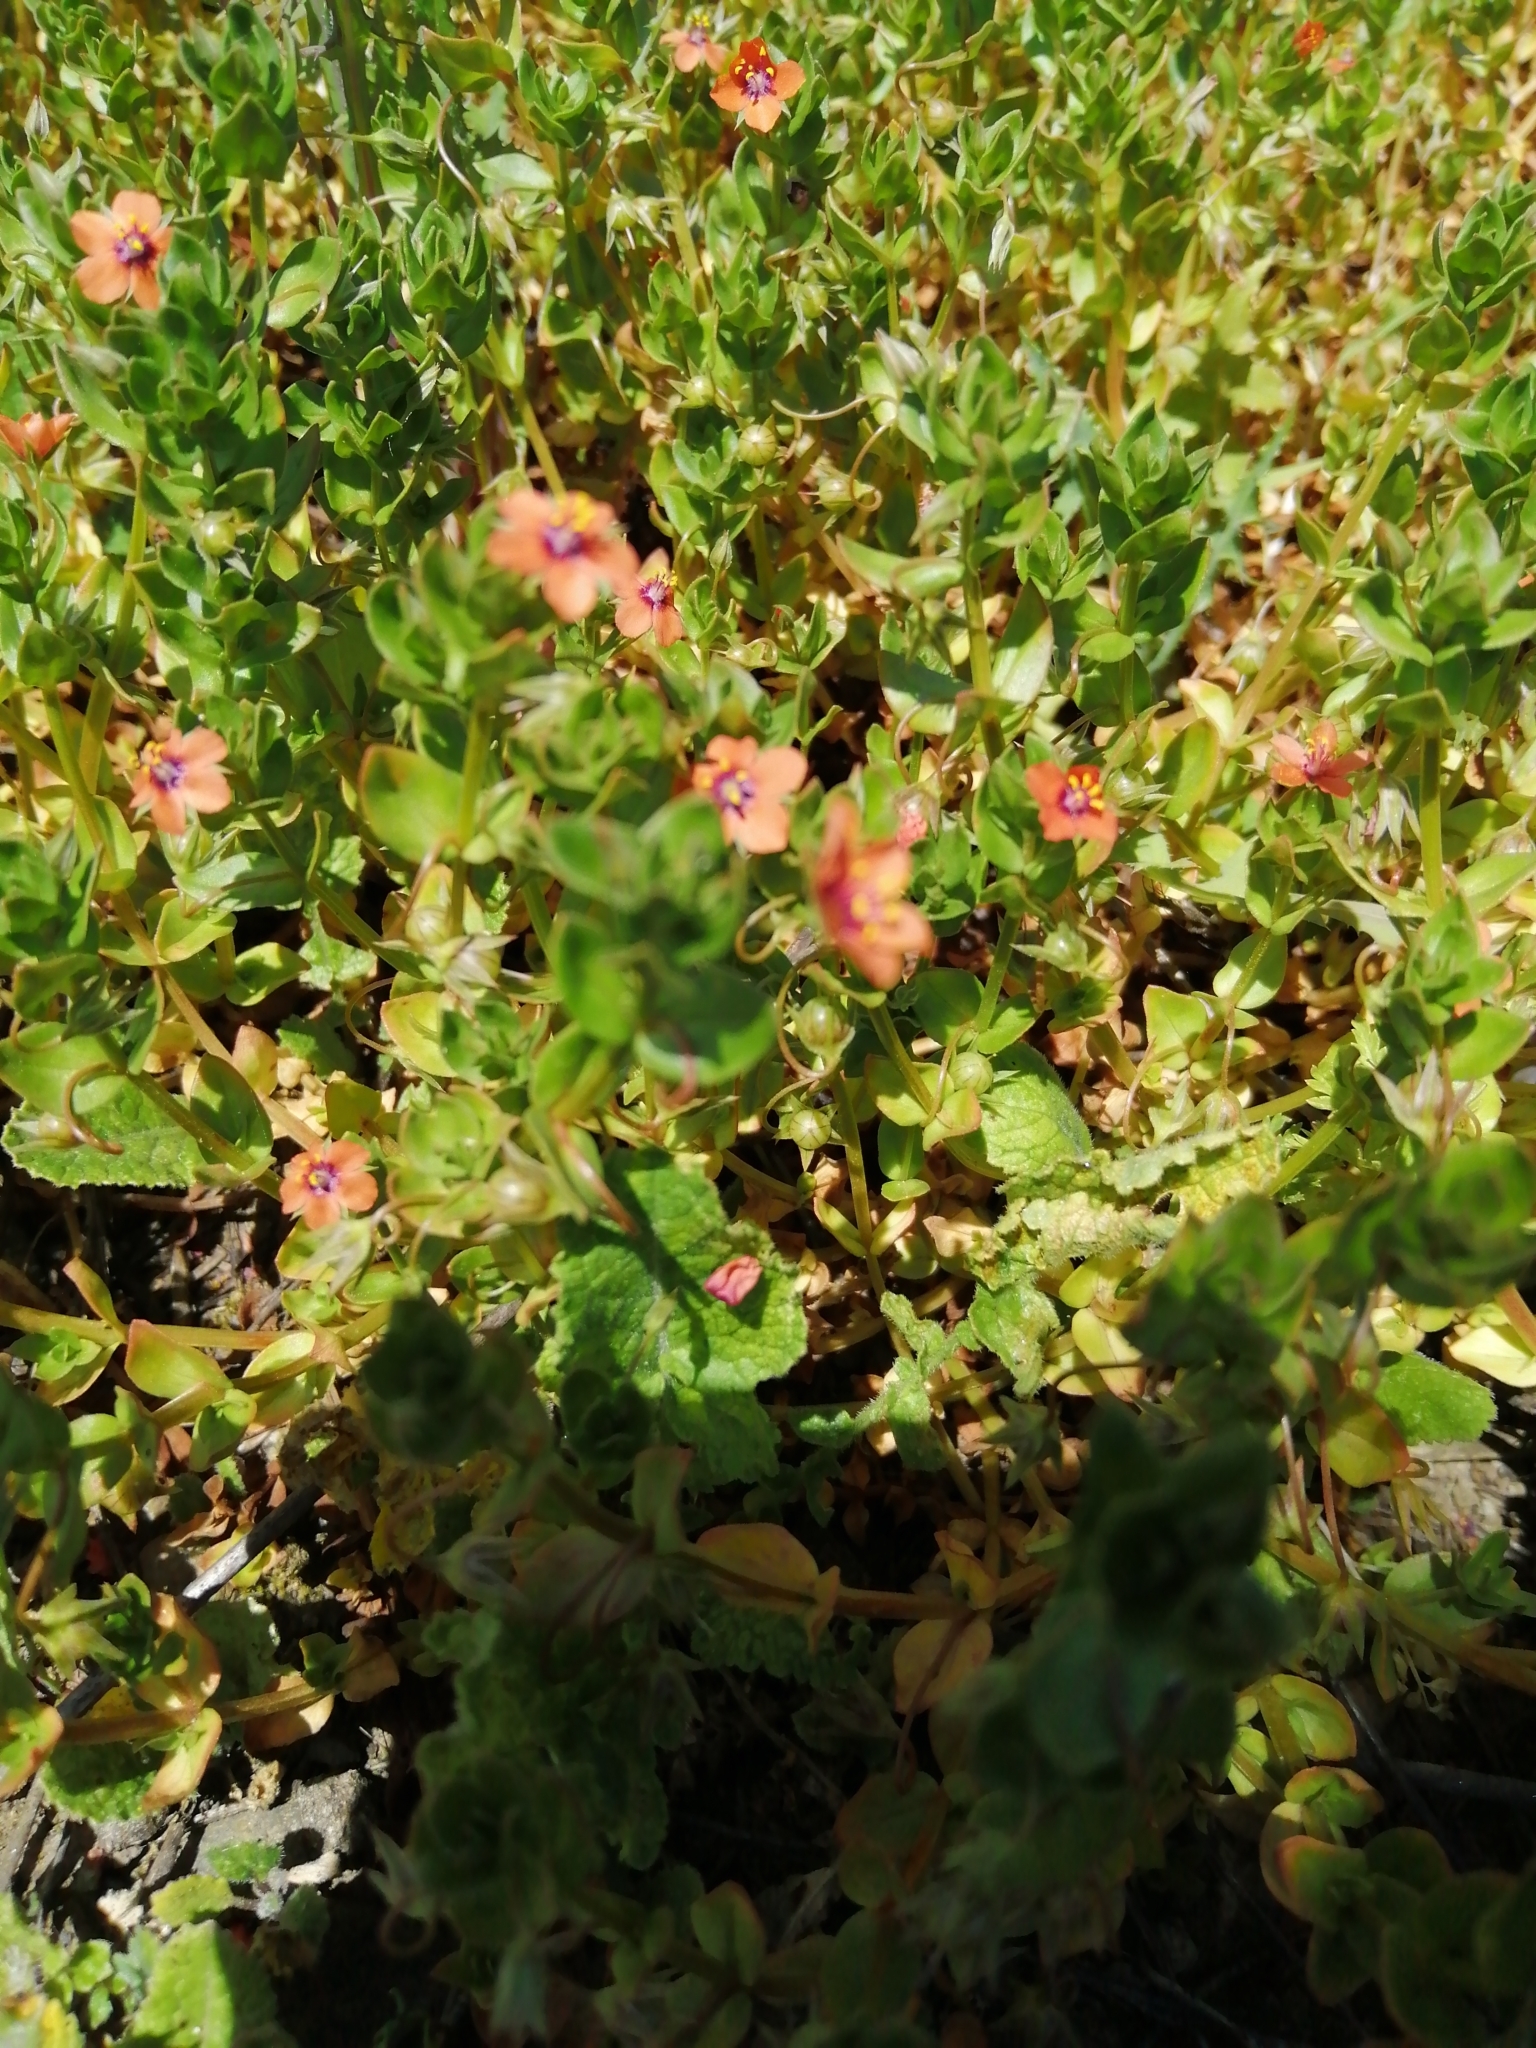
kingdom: Plantae
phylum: Tracheophyta
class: Magnoliopsida
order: Ericales
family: Primulaceae
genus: Lysimachia
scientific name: Lysimachia arvensis
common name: Scarlet pimpernel
